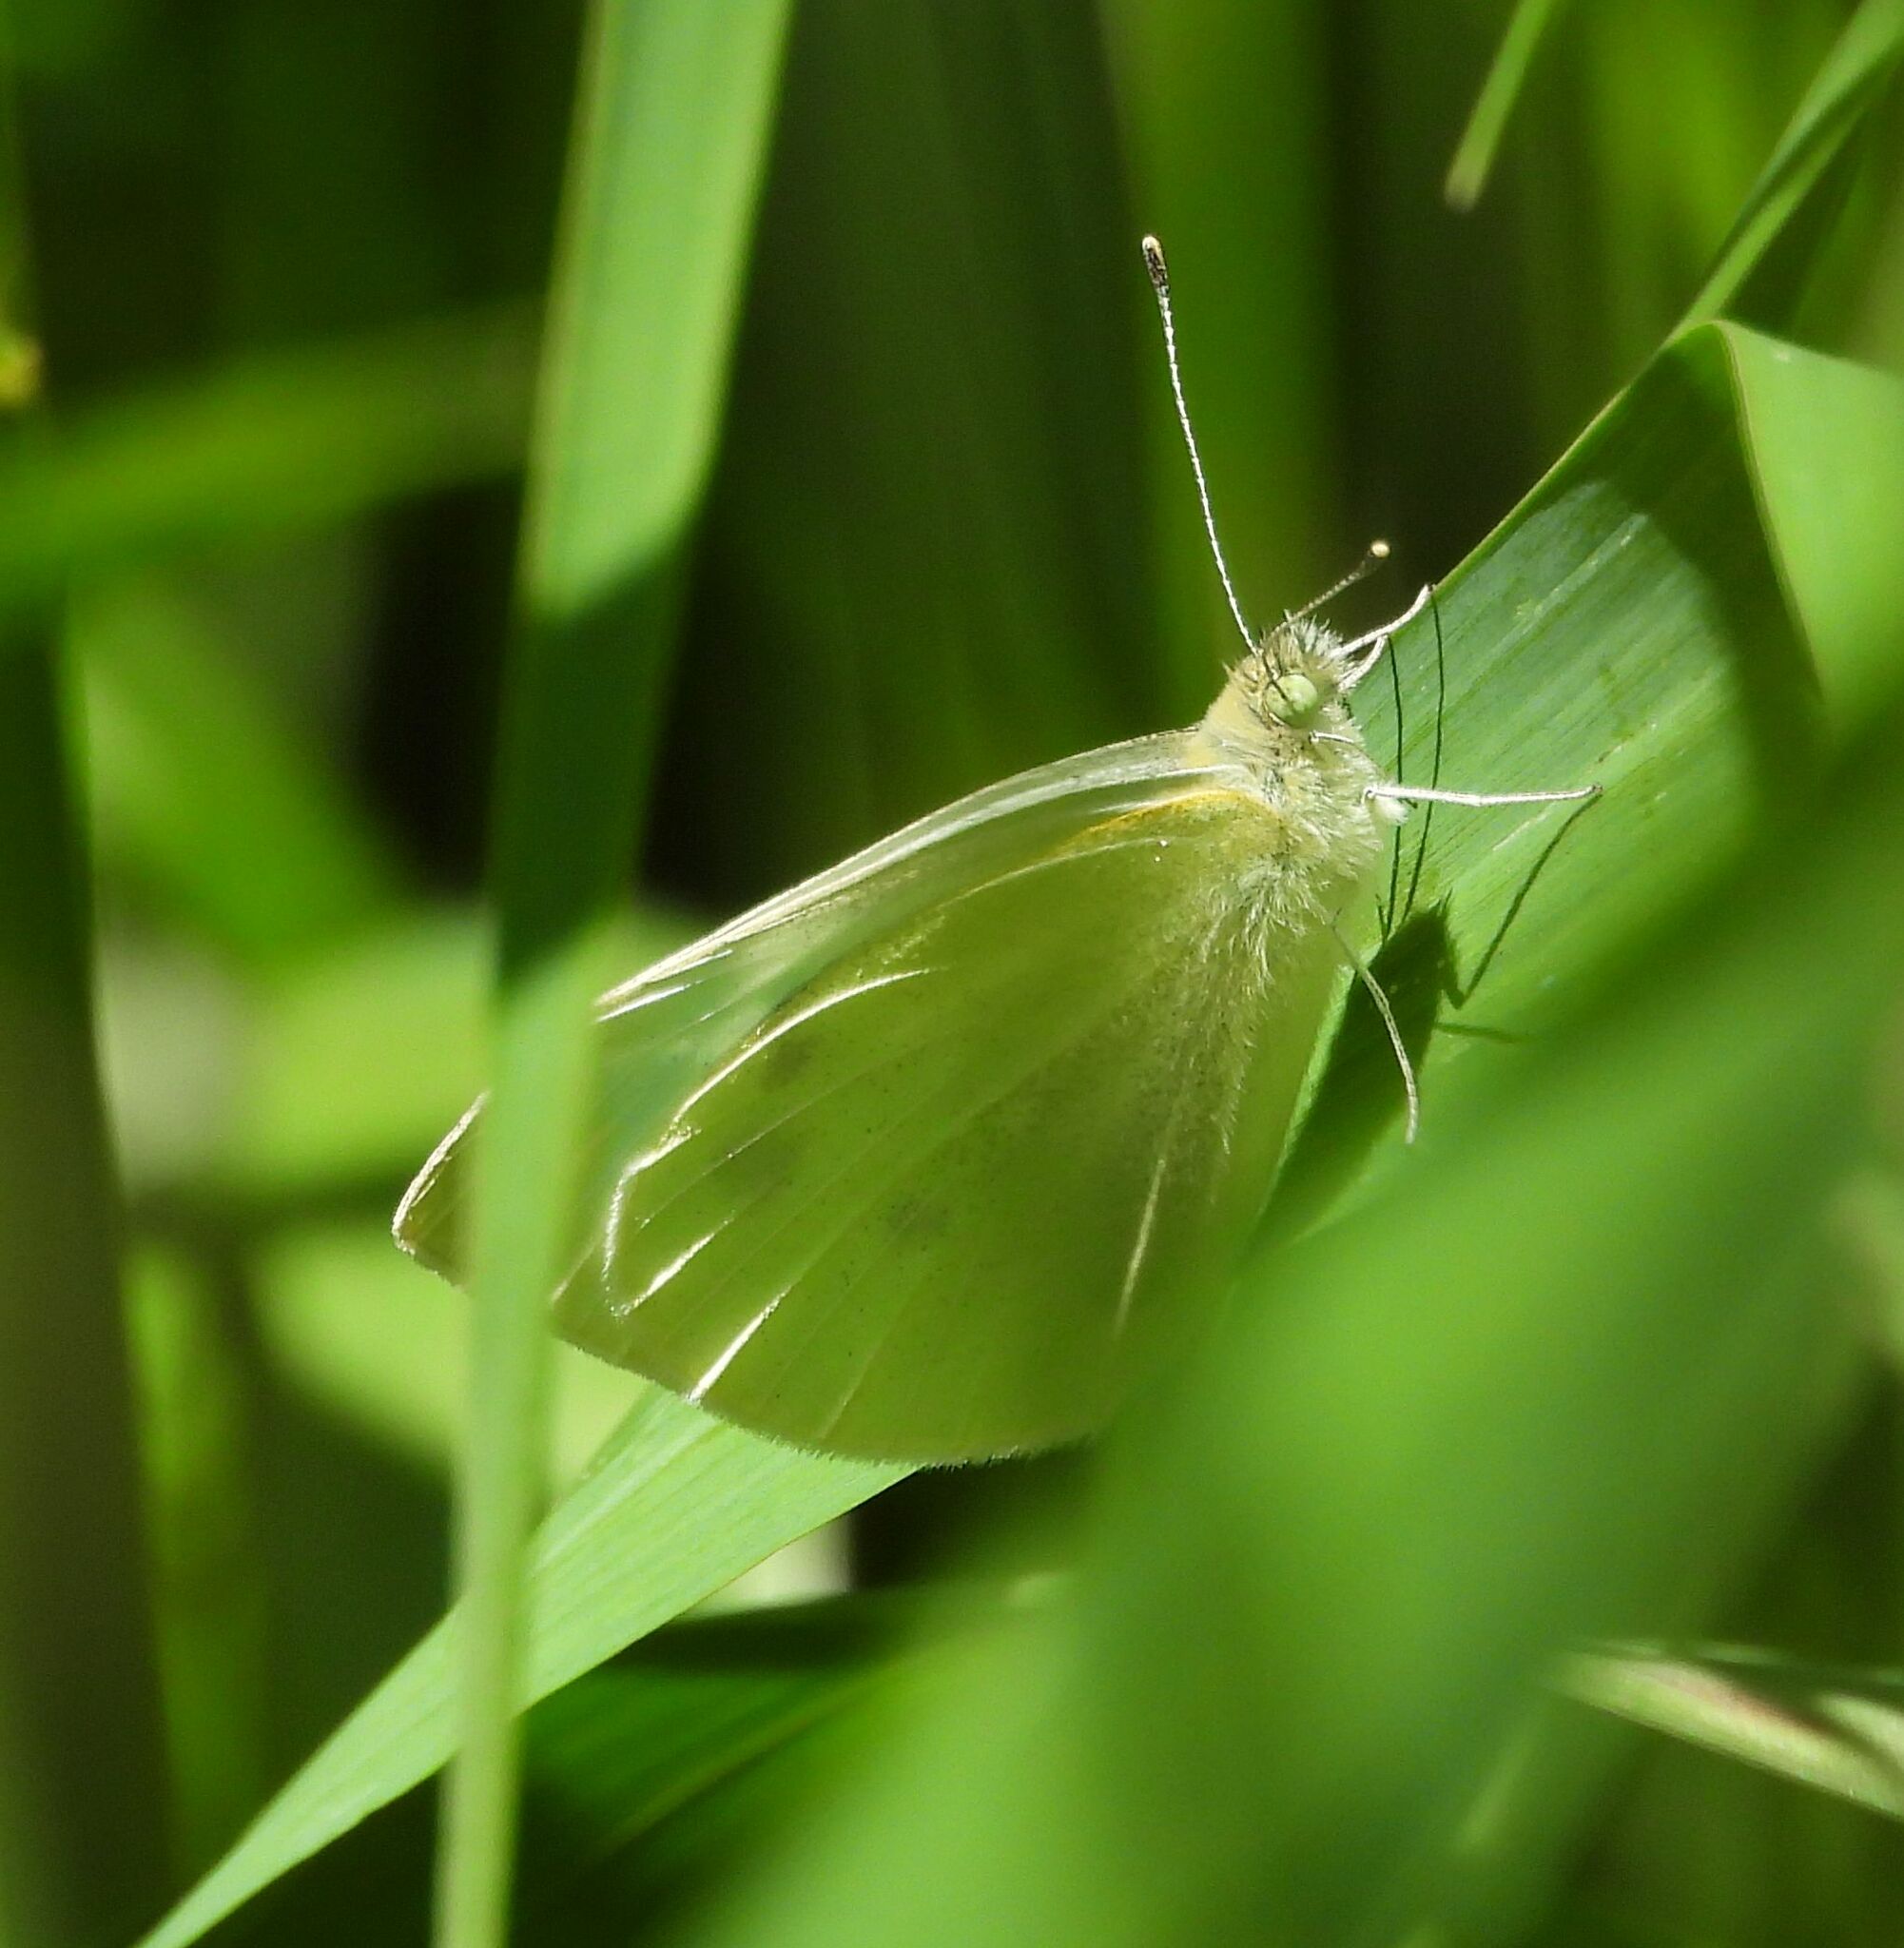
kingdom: Animalia
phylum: Arthropoda
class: Insecta
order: Lepidoptera
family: Pieridae
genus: Pieris
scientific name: Pieris rapae
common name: Small white
